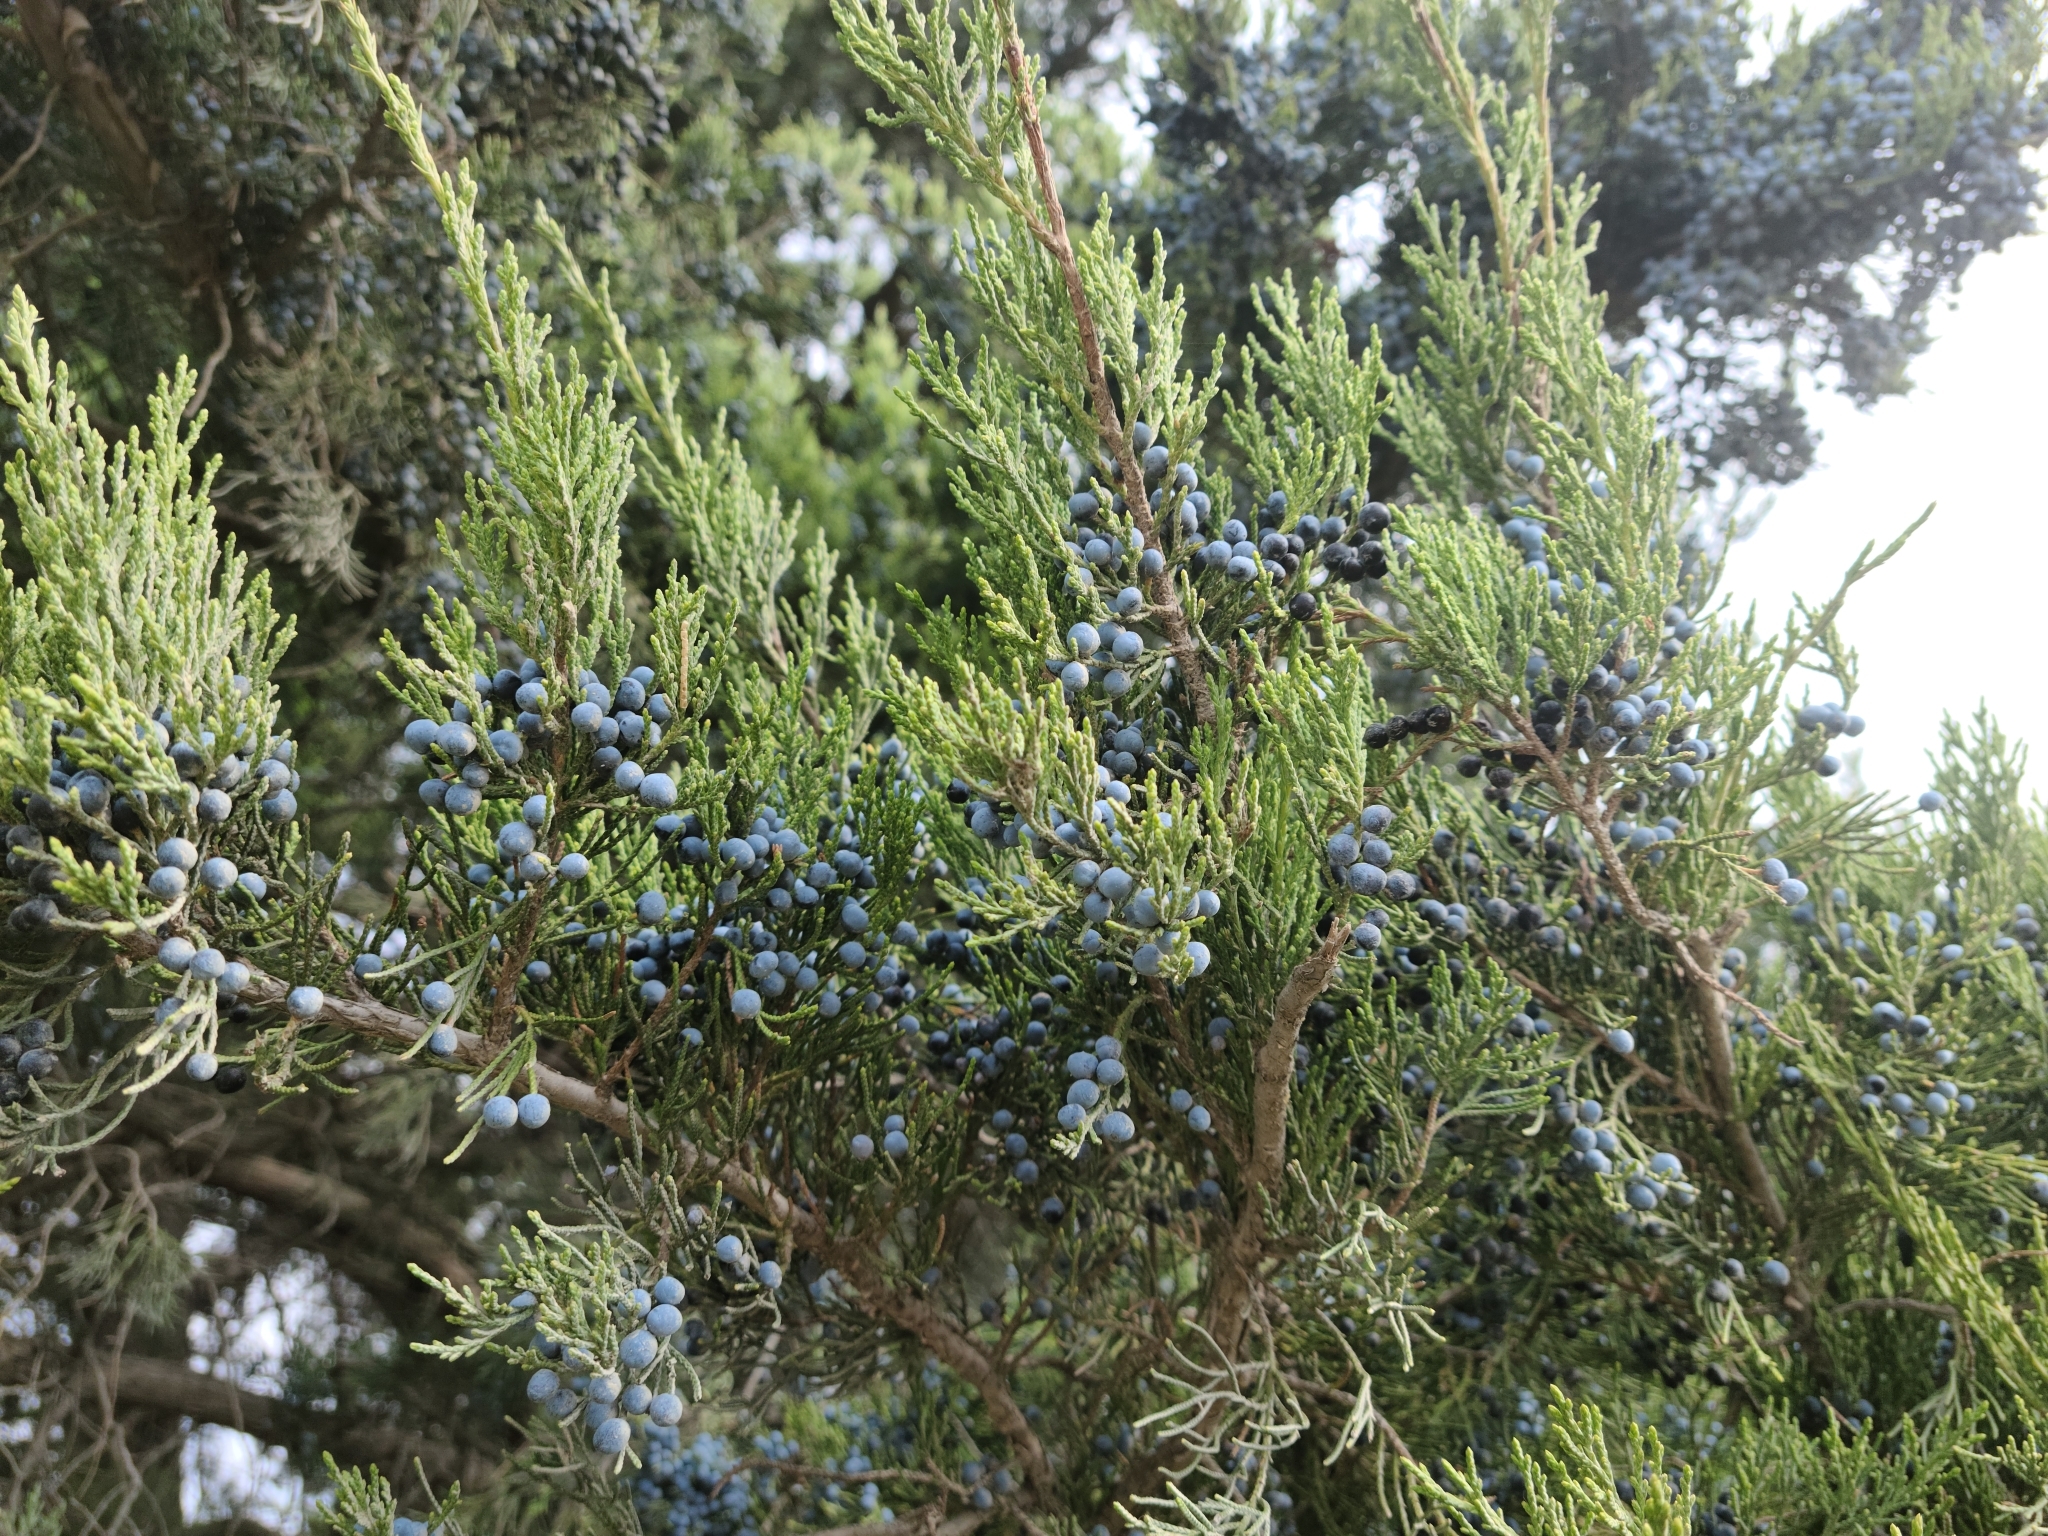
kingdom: Plantae
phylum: Tracheophyta
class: Pinopsida
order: Pinales
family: Cupressaceae
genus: Juniperus
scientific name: Juniperus ashei
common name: Mexican juniper
